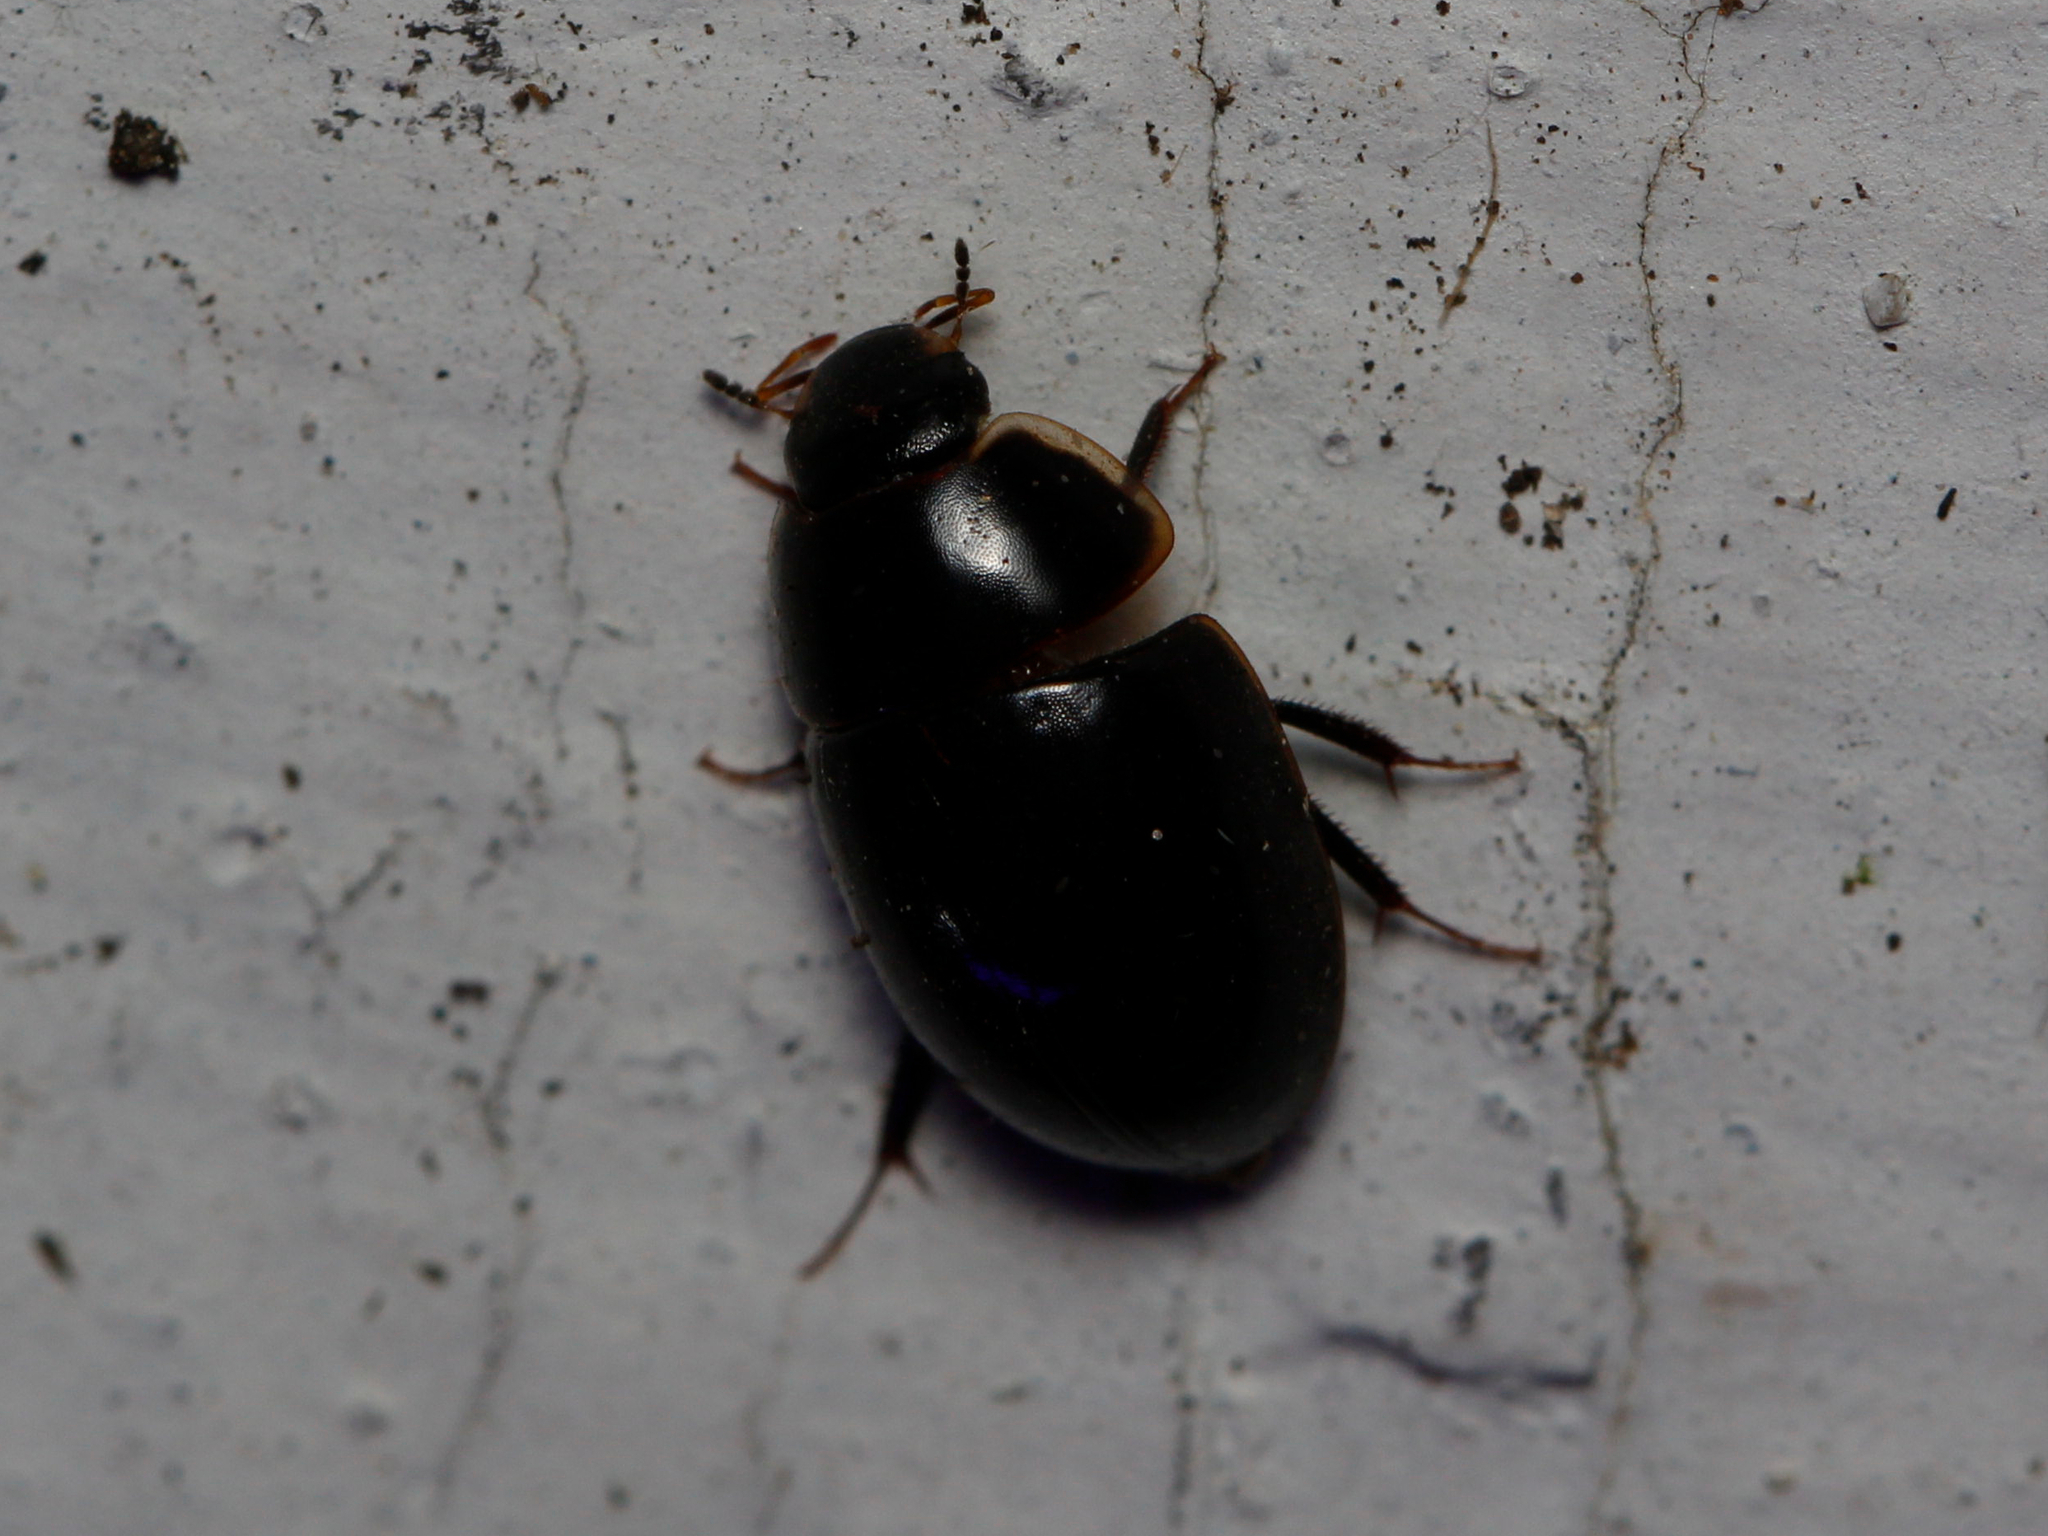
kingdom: Animalia
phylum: Arthropoda
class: Insecta
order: Coleoptera
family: Hydrophilidae
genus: Enochrus
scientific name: Enochrus
